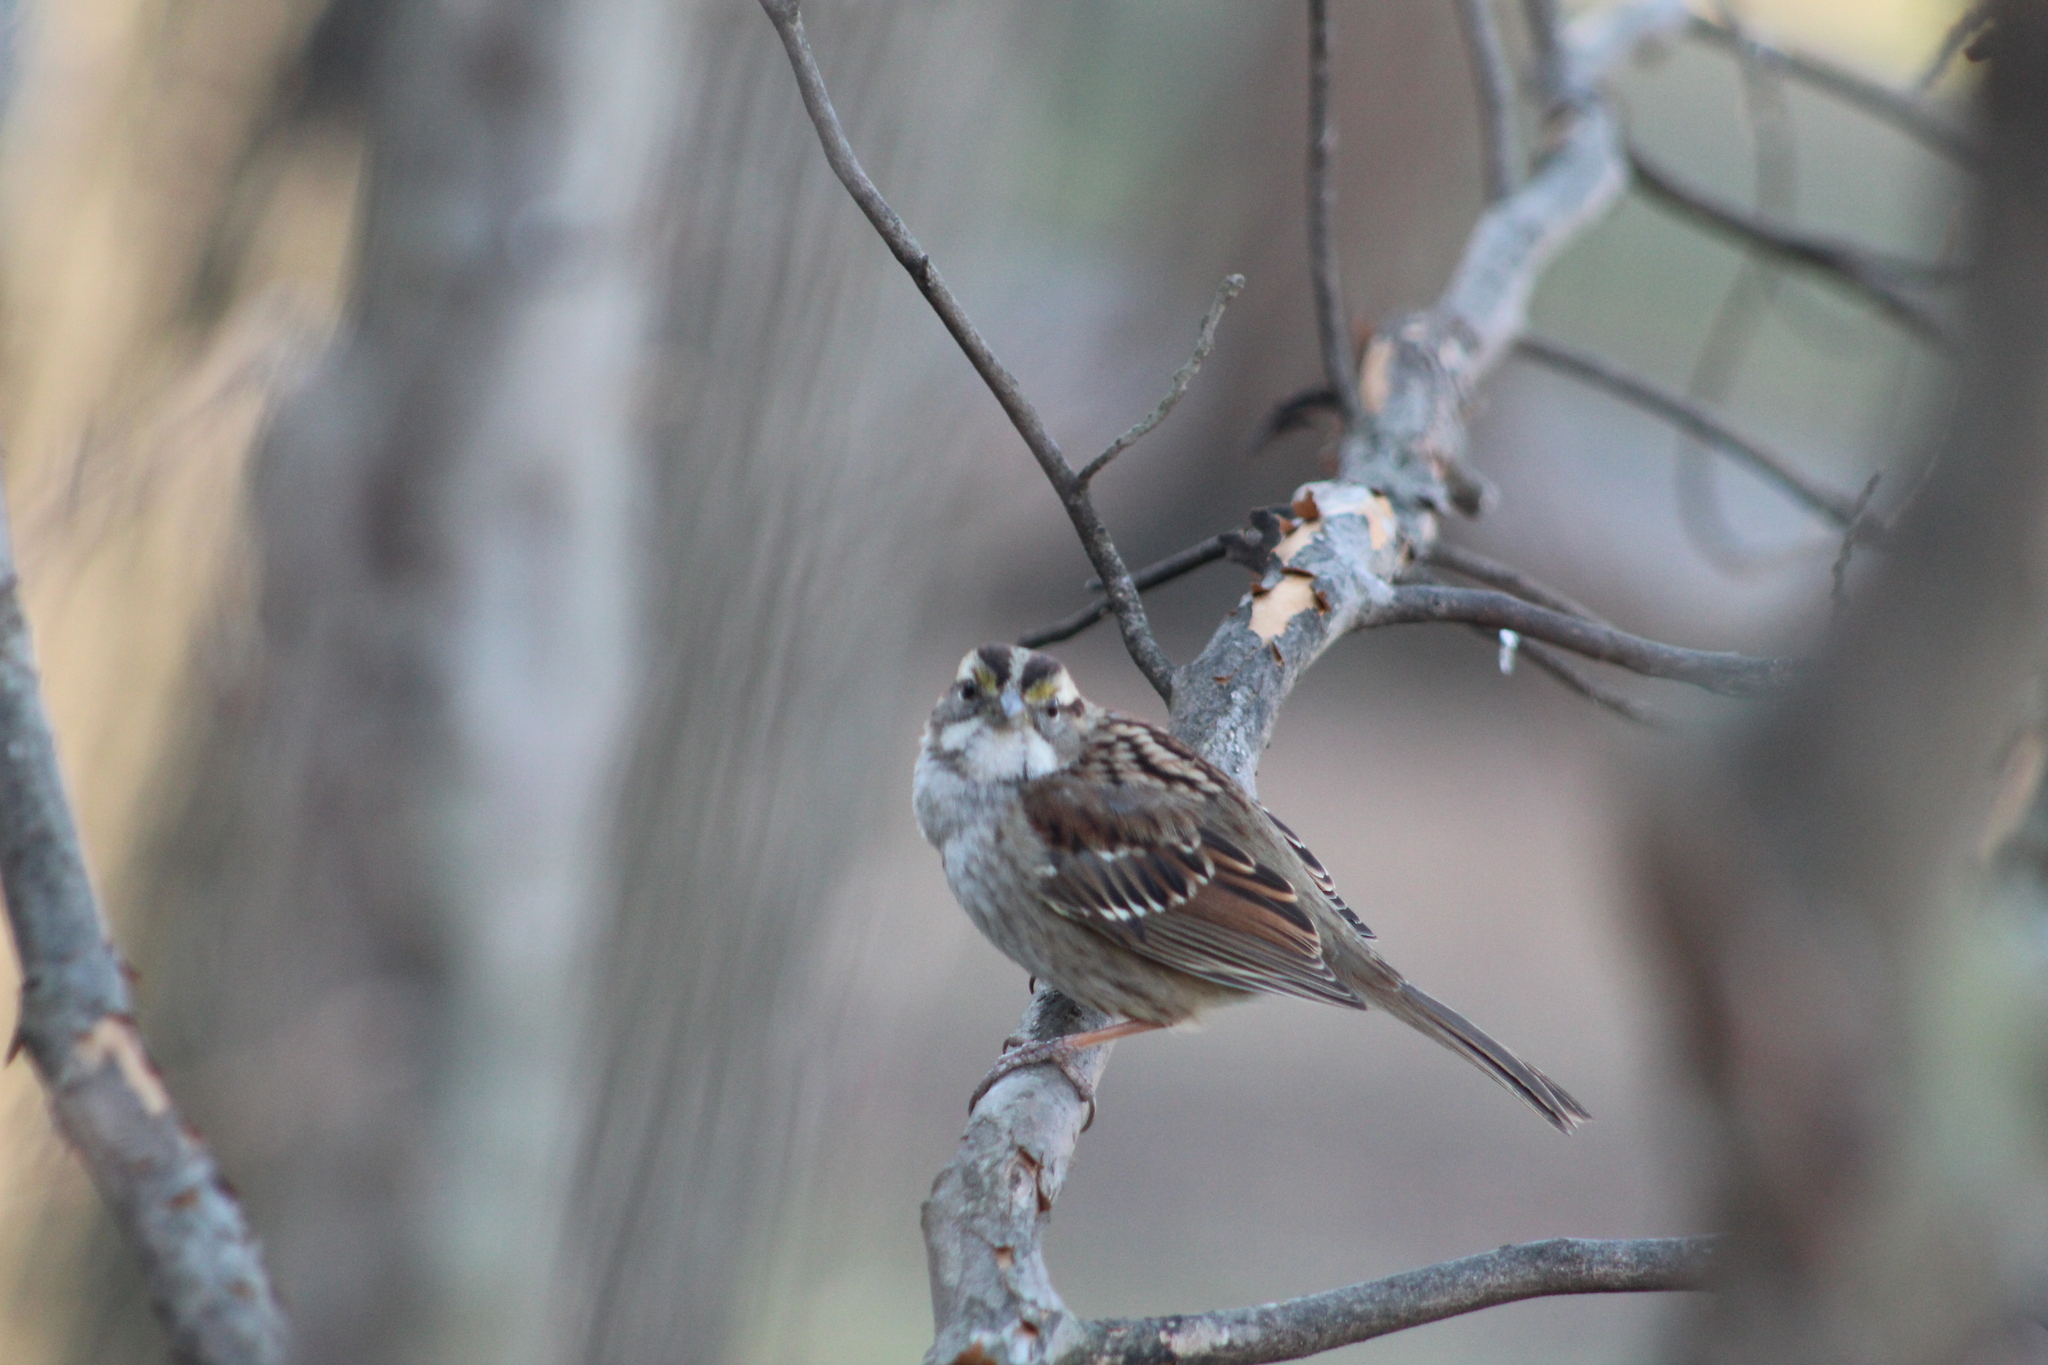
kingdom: Animalia
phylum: Chordata
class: Aves
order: Passeriformes
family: Passerellidae
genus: Zonotrichia
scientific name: Zonotrichia albicollis
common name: White-throated sparrow
